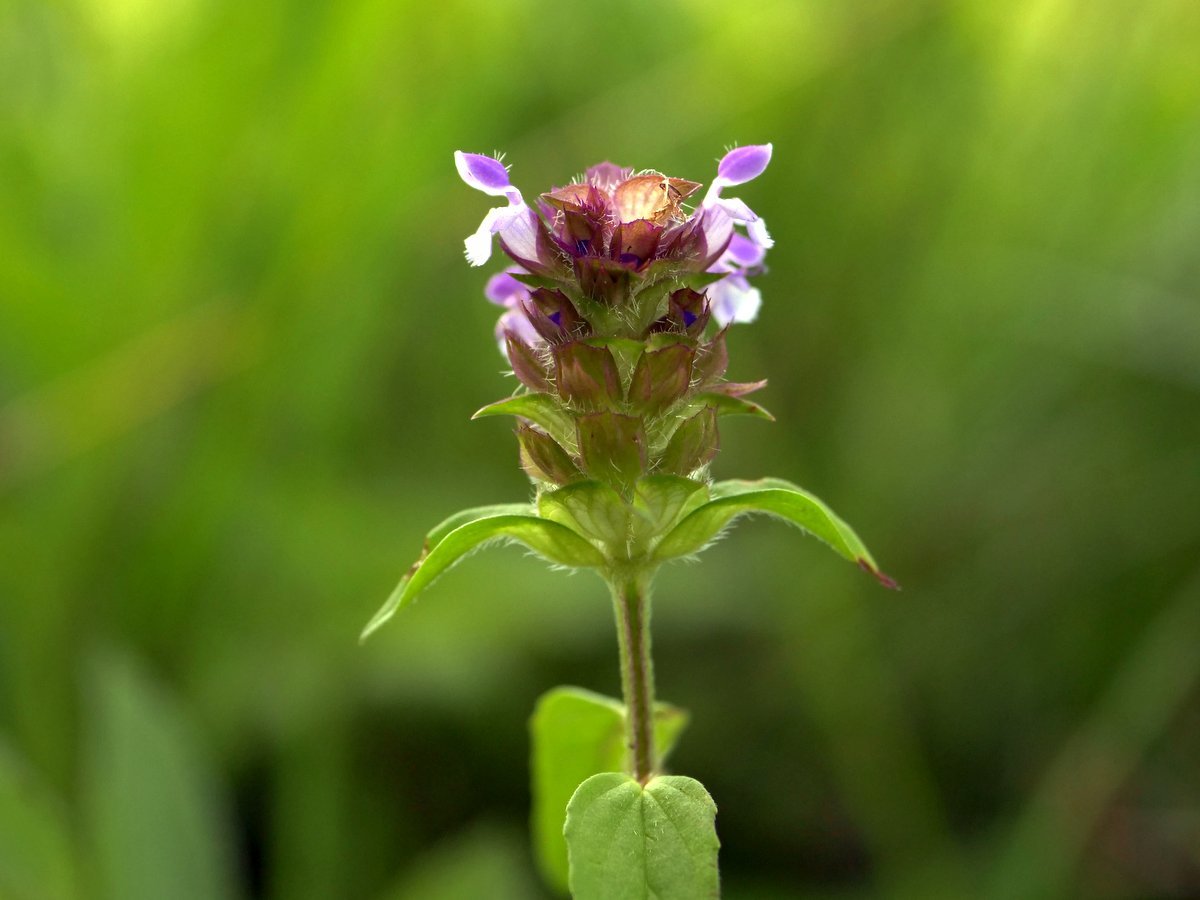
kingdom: Plantae
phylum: Tracheophyta
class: Magnoliopsida
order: Lamiales
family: Lamiaceae
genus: Prunella
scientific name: Prunella vulgaris
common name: Heal-all
